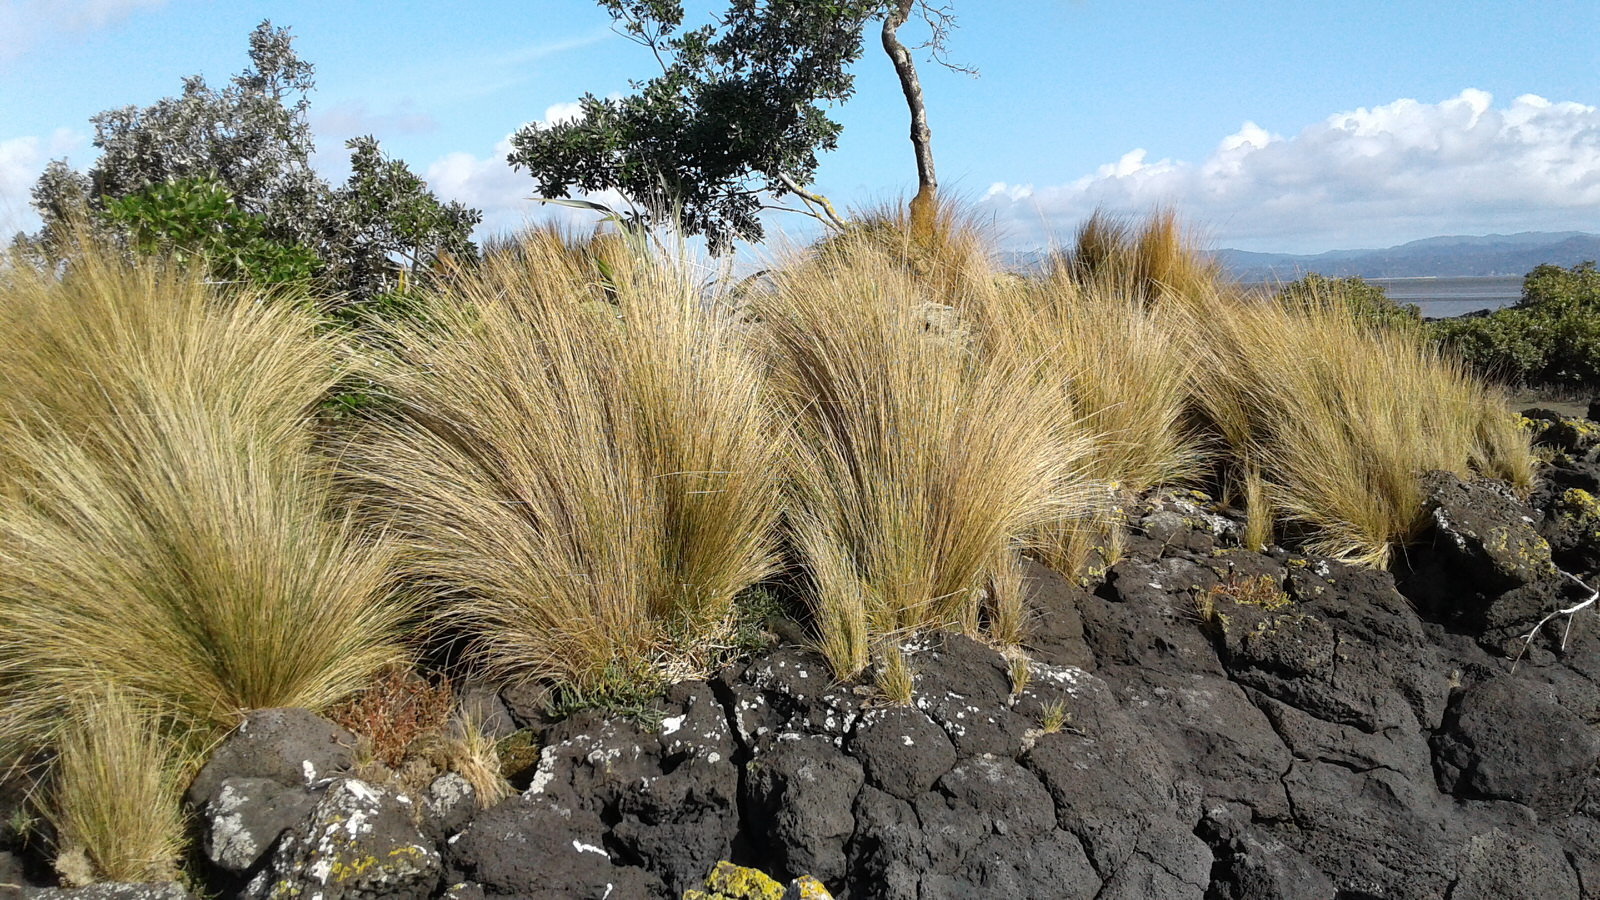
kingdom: Plantae
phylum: Tracheophyta
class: Liliopsida
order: Poales
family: Poaceae
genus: Austrostipa
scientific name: Austrostipa stipoides
